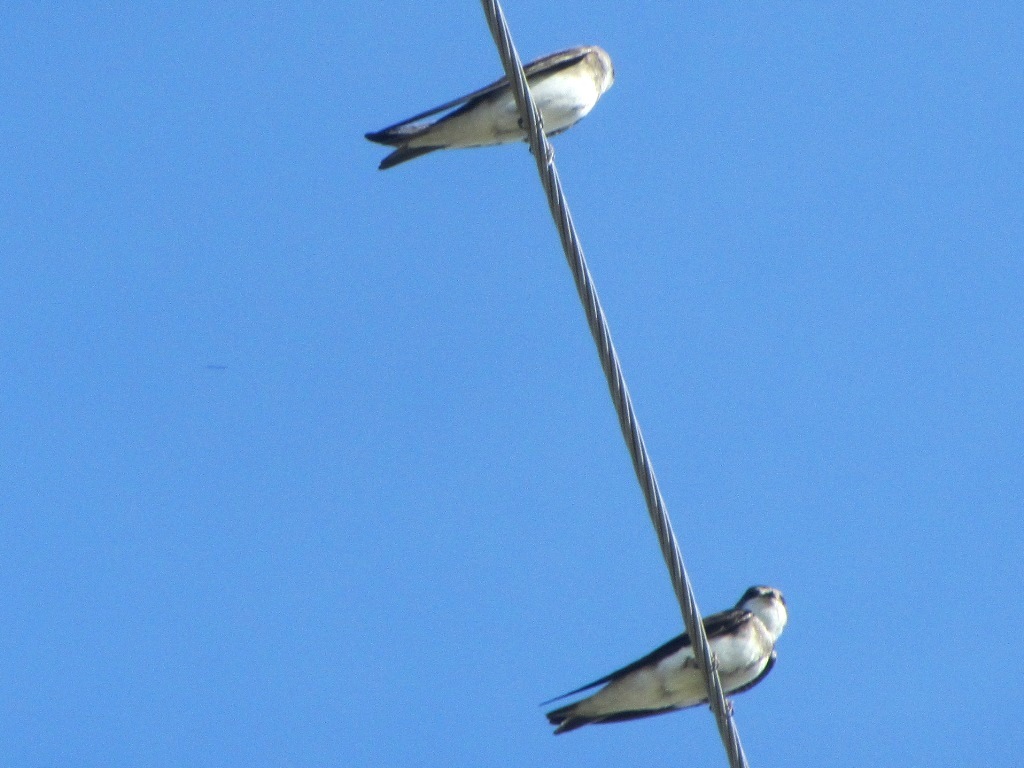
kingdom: Animalia
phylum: Chordata
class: Aves
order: Passeriformes
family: Hirundinidae
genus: Riparia
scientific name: Riparia riparia
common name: Sand martin
